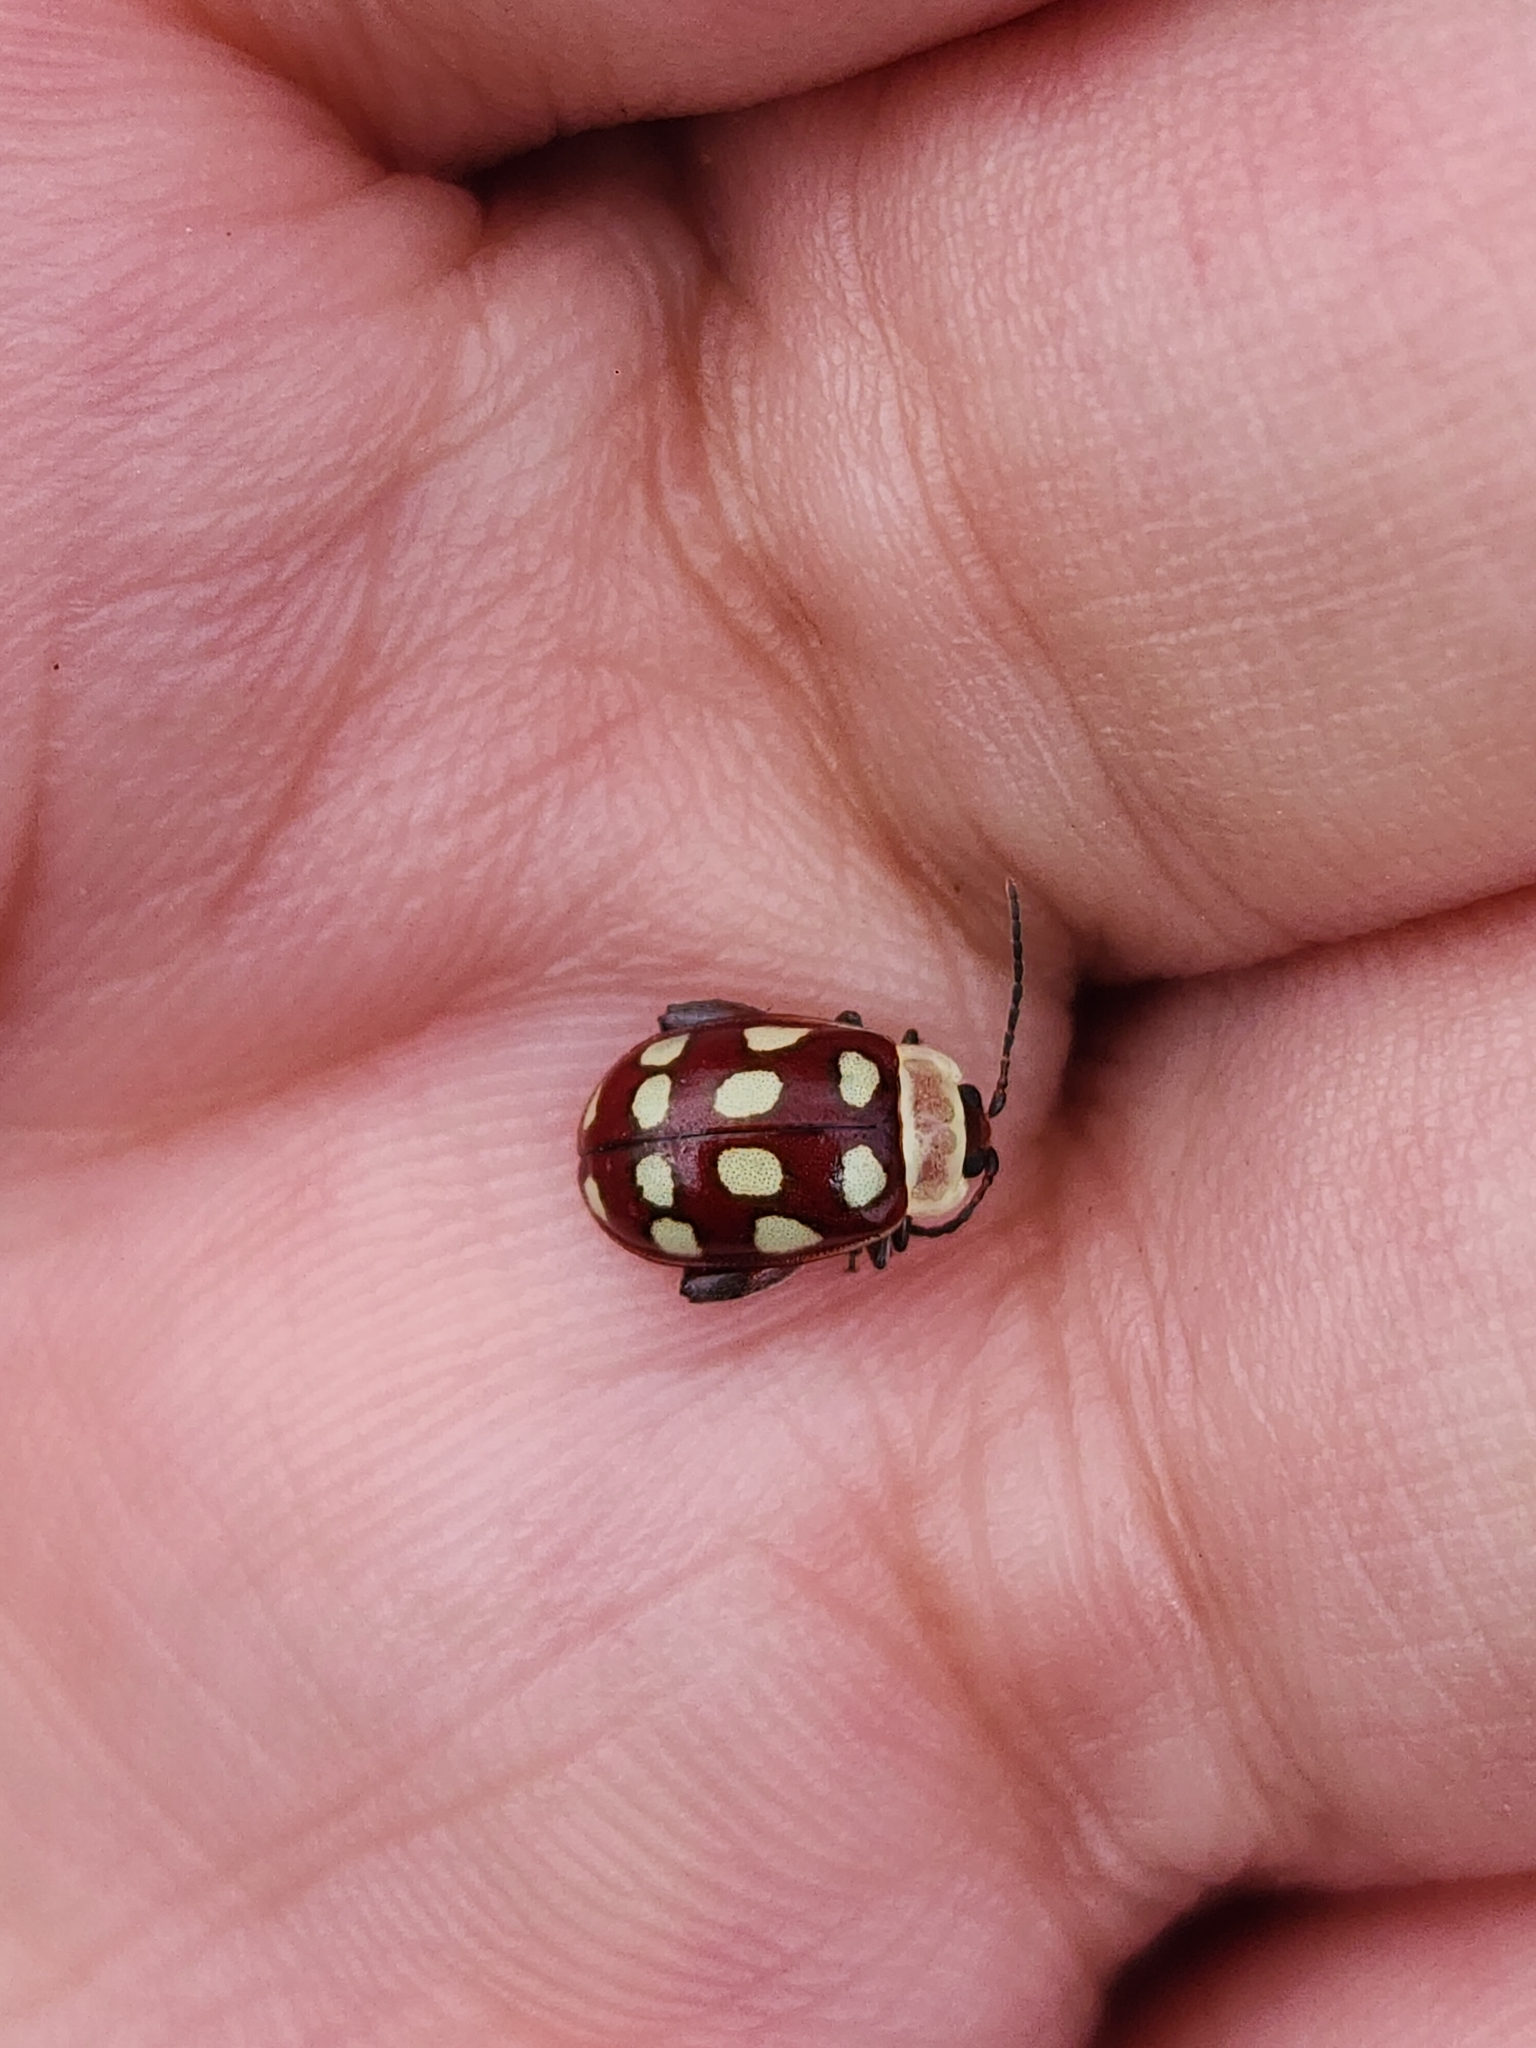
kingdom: Animalia
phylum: Arthropoda
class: Insecta
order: Coleoptera
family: Chrysomelidae
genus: Alagoasa
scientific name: Alagoasa decemguttata
